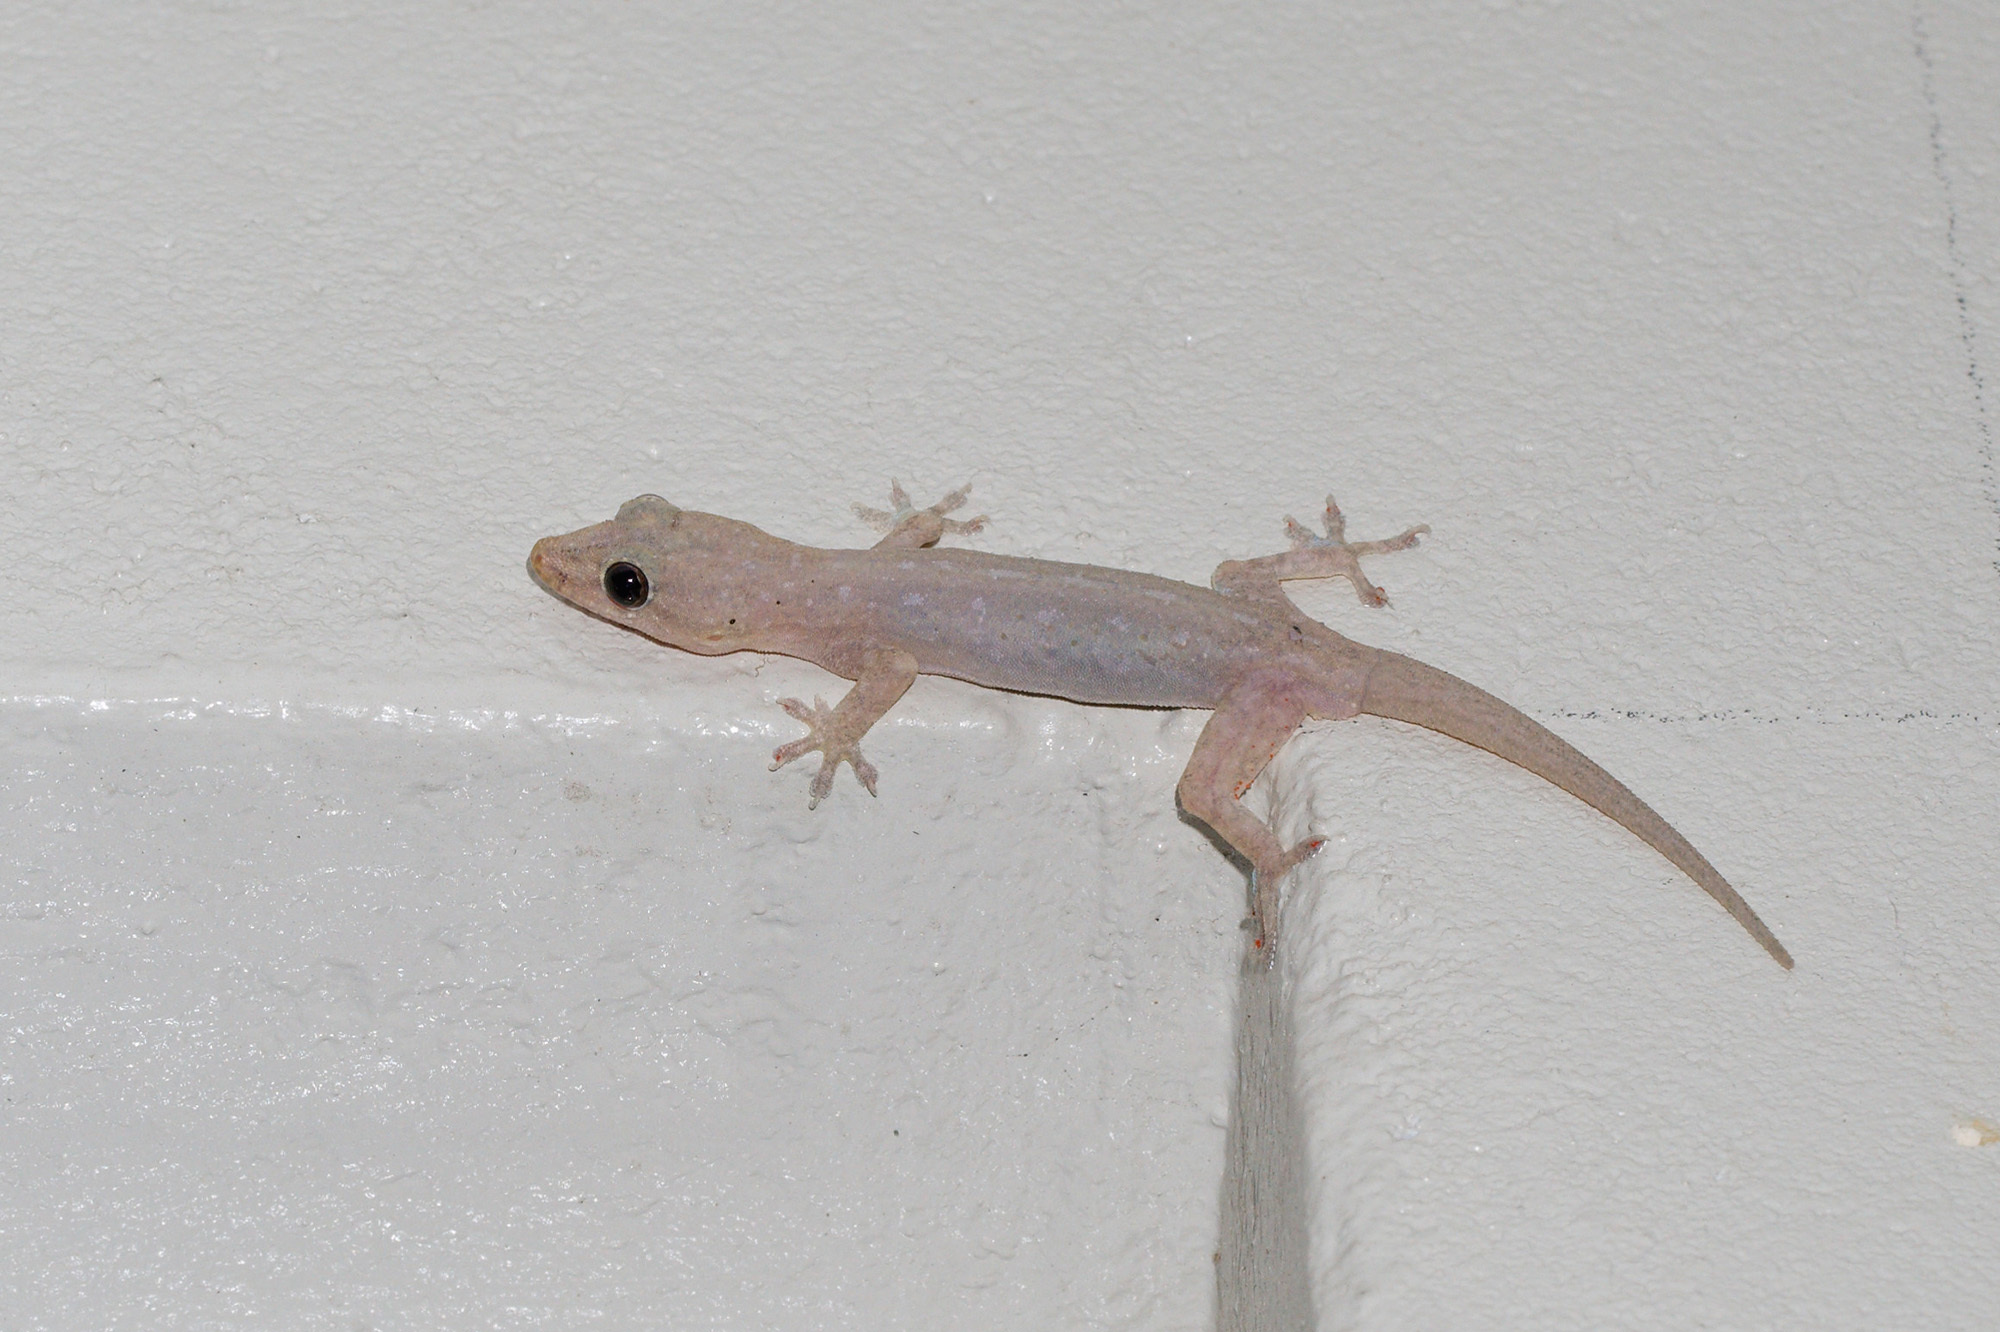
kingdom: Animalia
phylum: Chordata
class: Squamata
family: Gekkonidae
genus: Hemidactylus
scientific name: Hemidactylus frenatus
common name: Common house gecko
